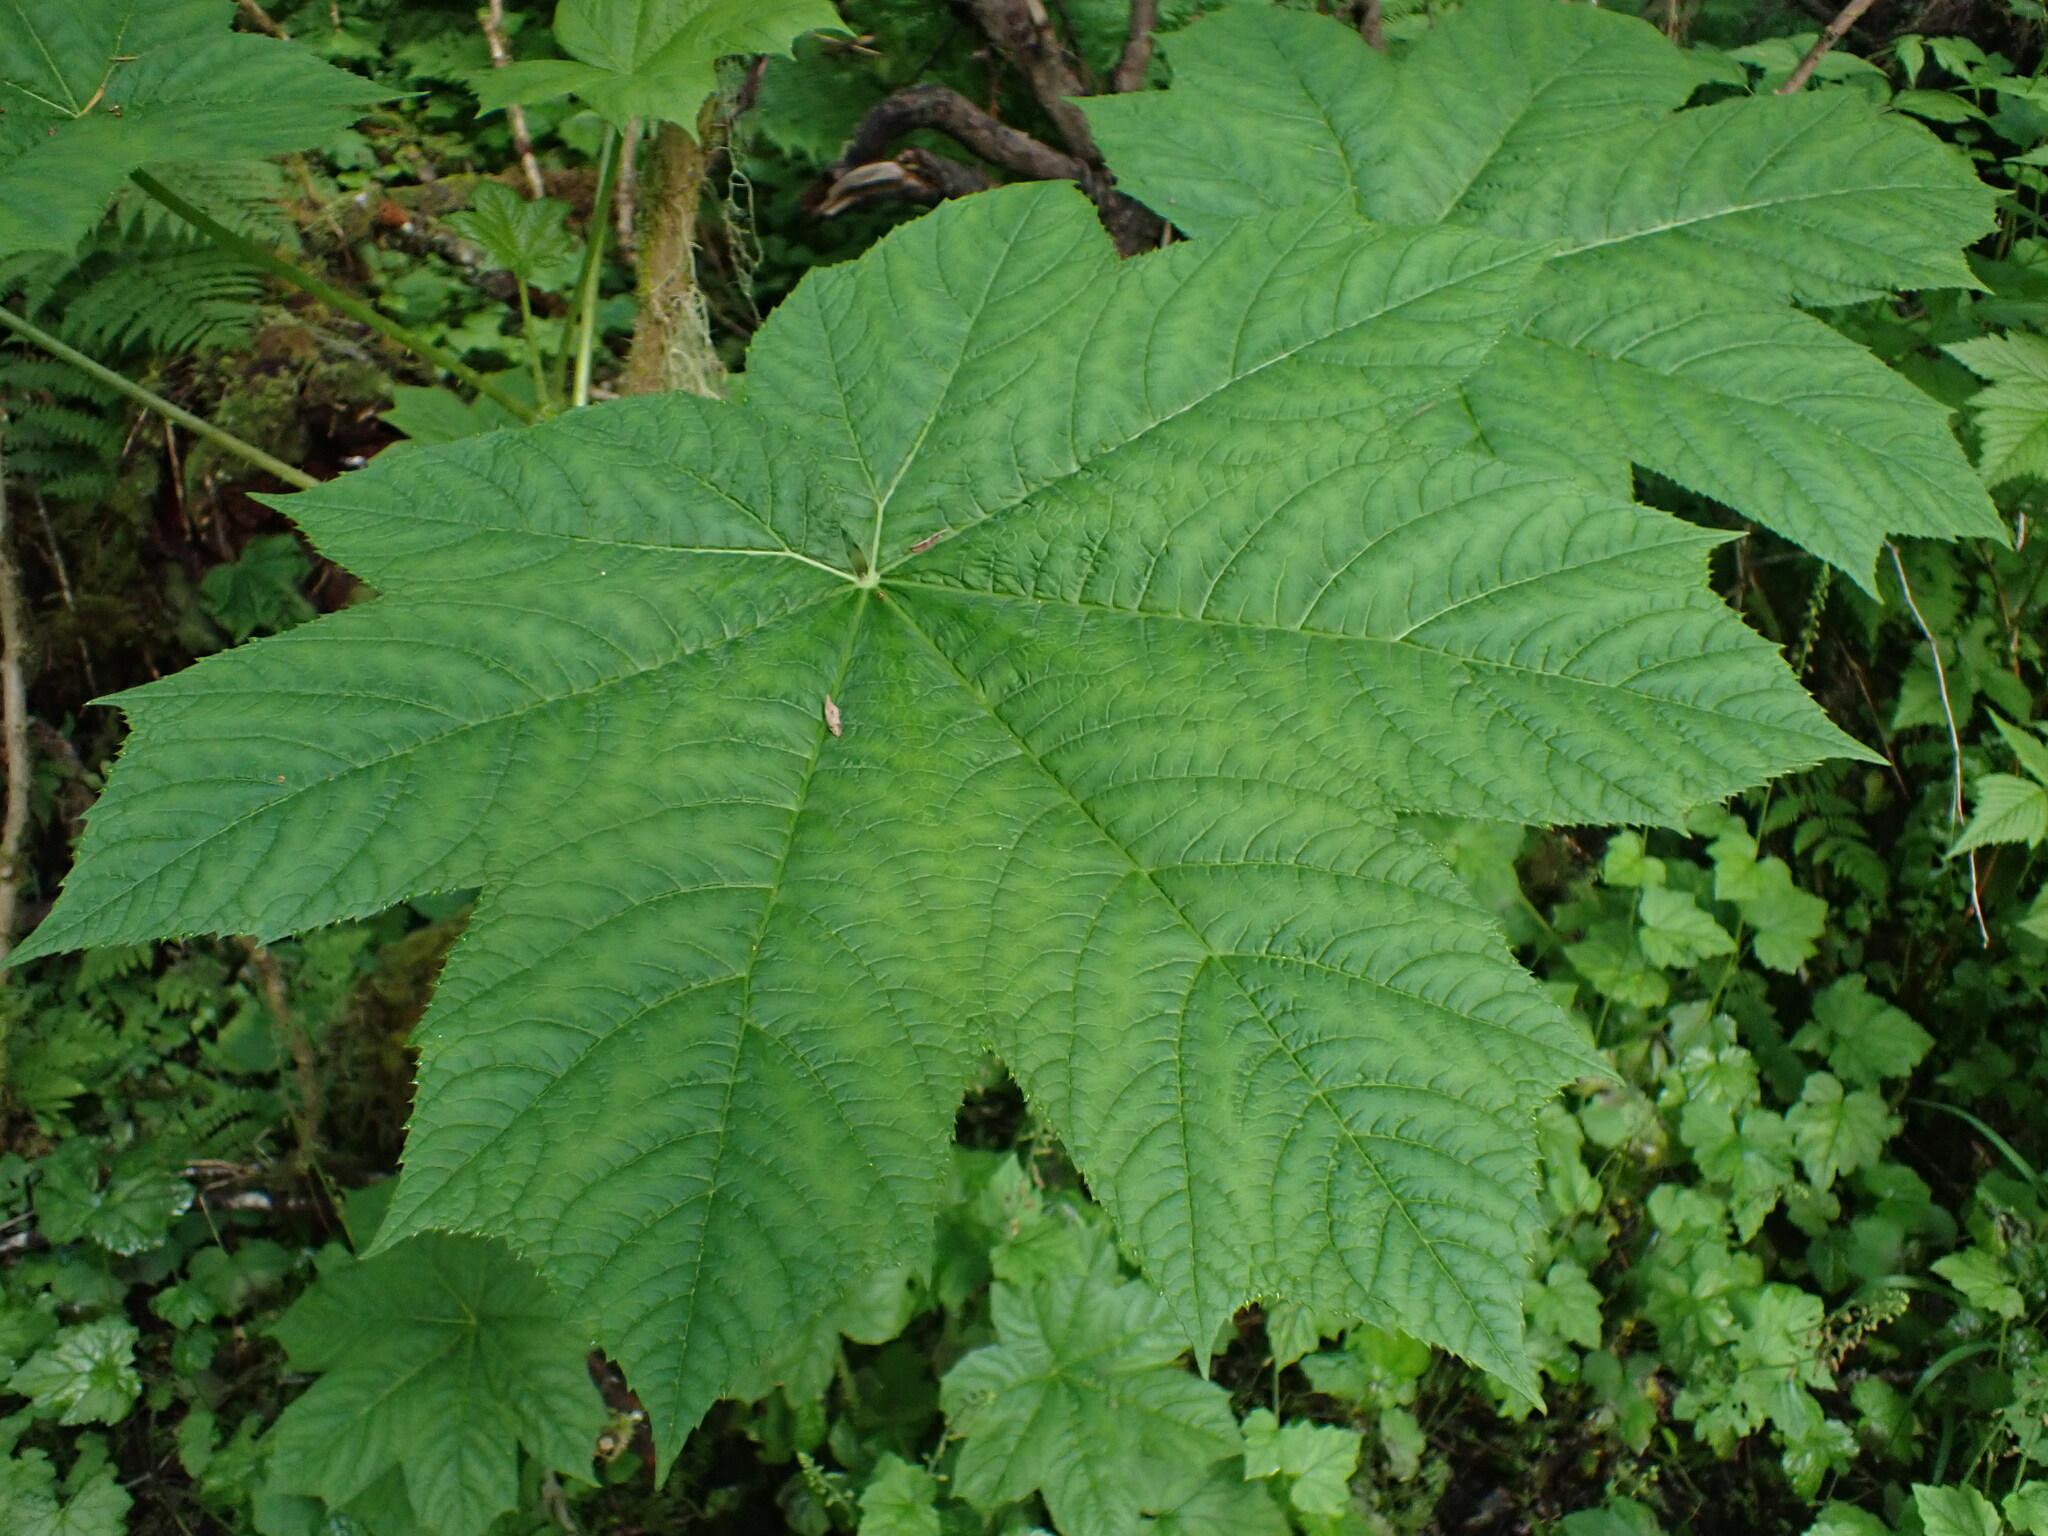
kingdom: Plantae
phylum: Tracheophyta
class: Magnoliopsida
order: Apiales
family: Araliaceae
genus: Oplopanax
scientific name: Oplopanax horridus
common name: Devil's walking-stick
